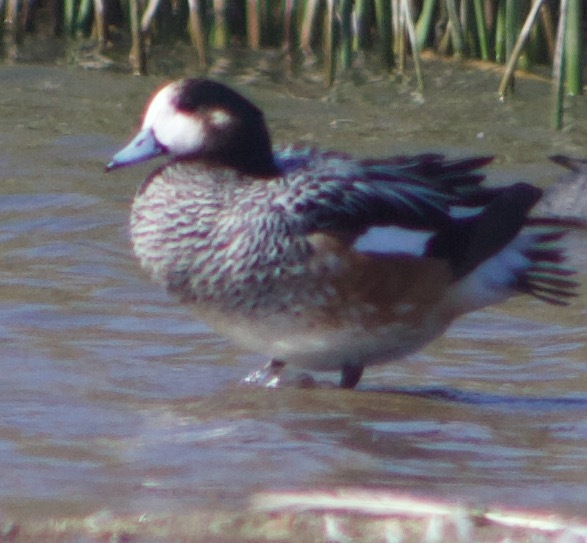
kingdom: Animalia
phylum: Chordata
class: Aves
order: Anseriformes
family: Anatidae
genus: Mareca
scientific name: Mareca sibilatrix
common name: Chiloe wigeon
